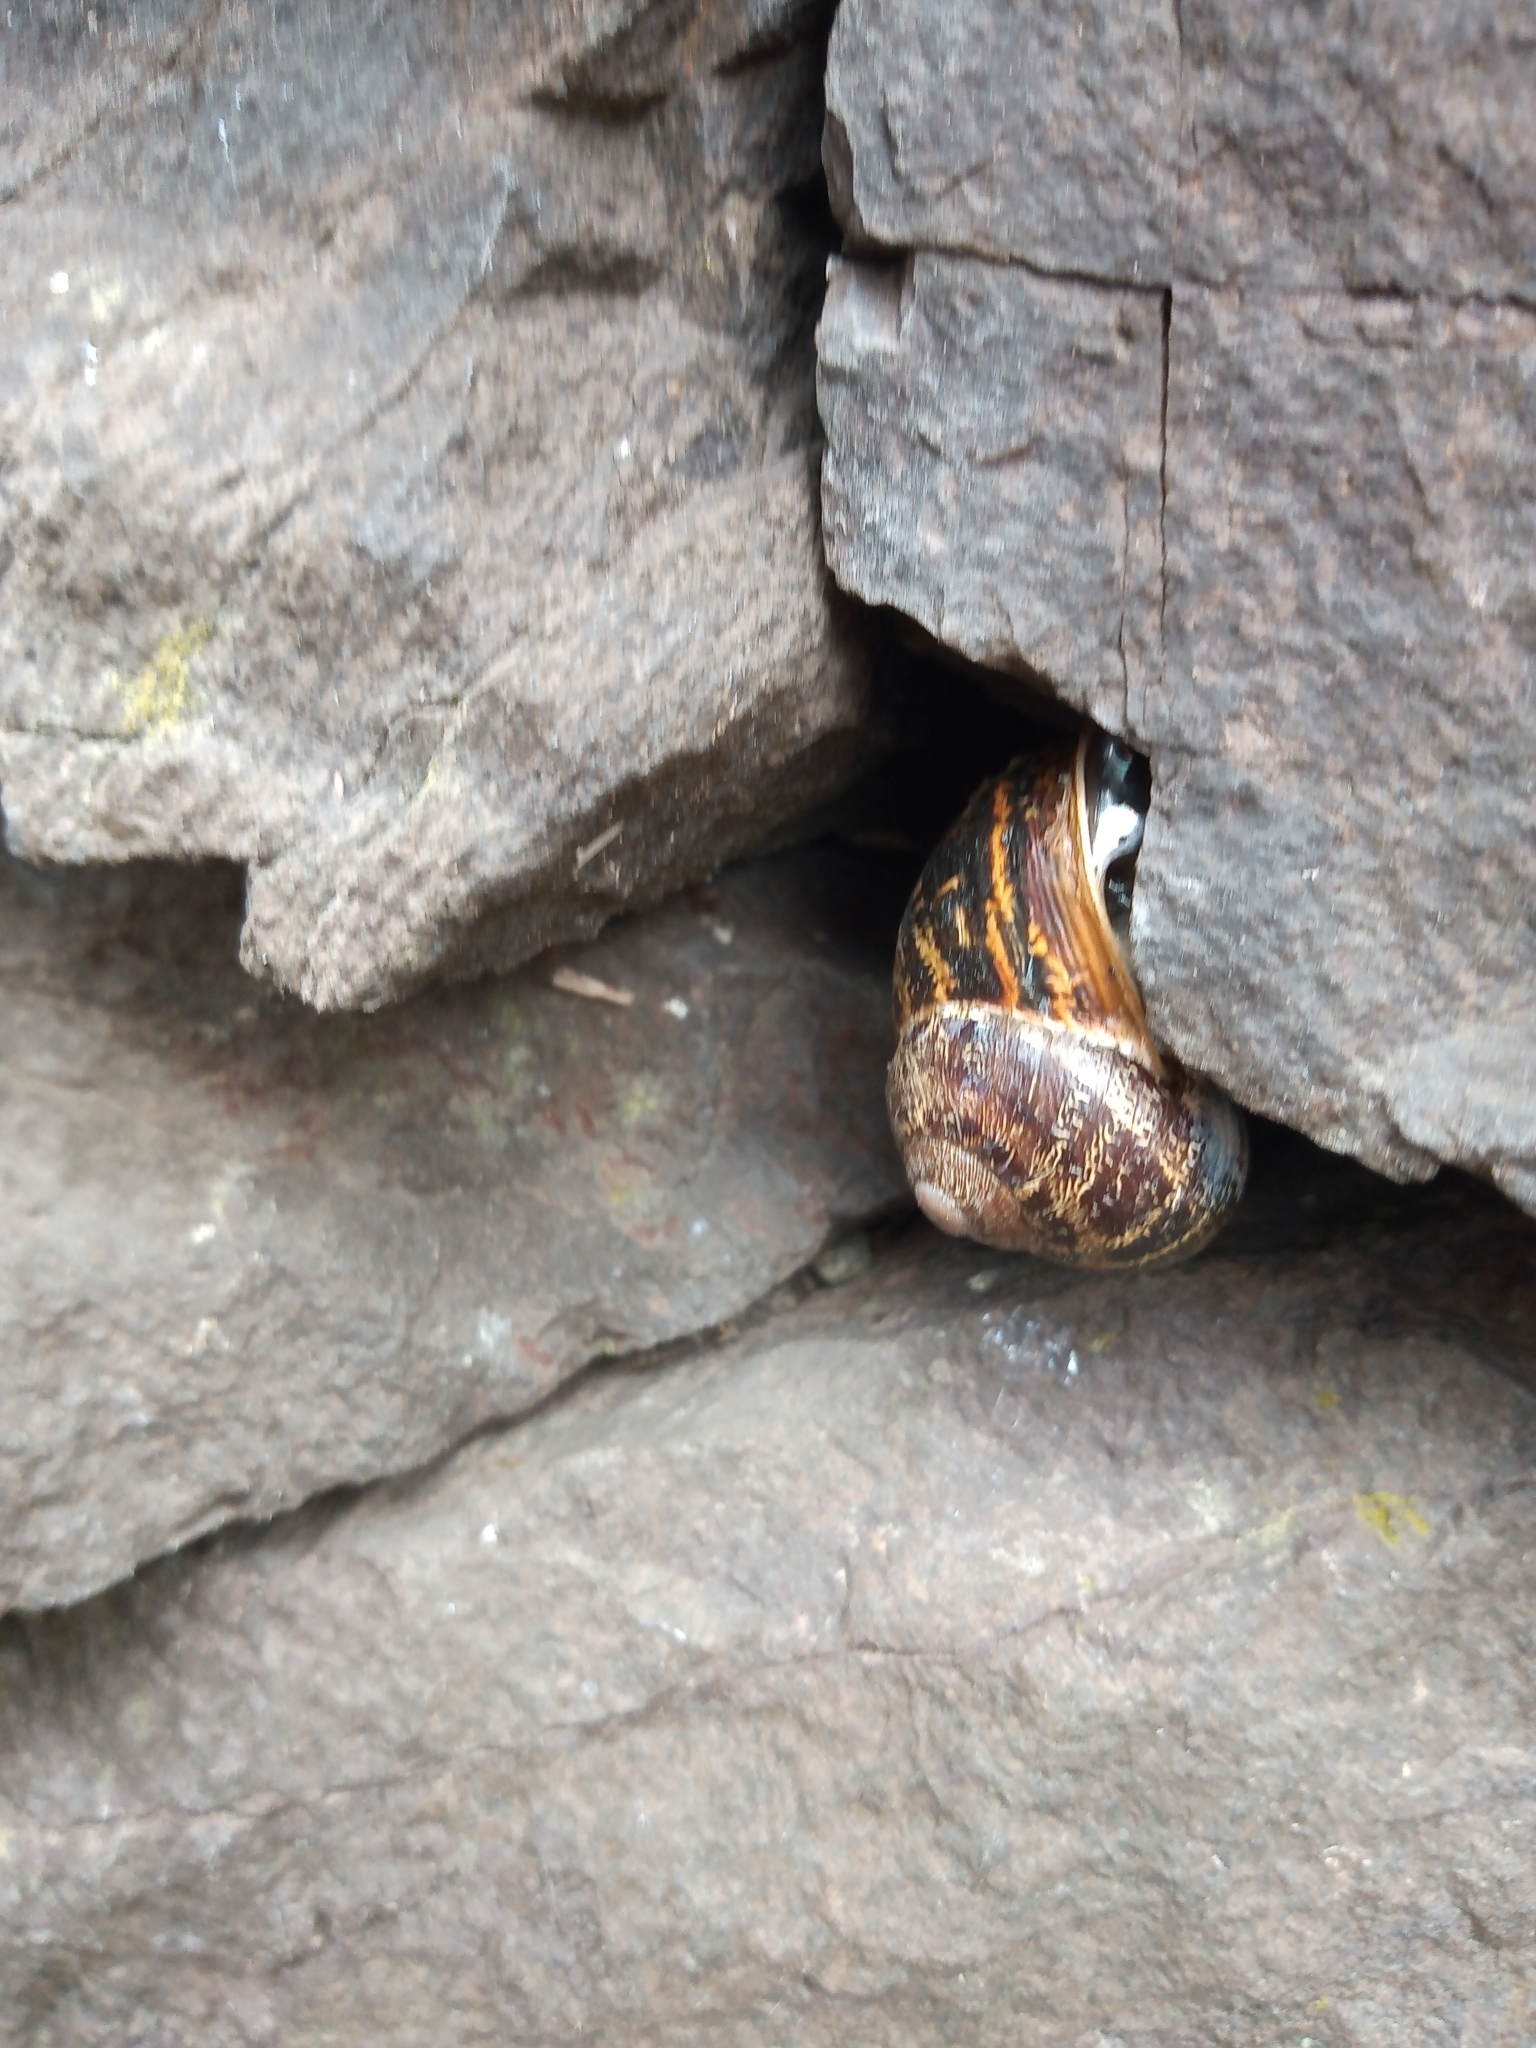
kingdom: Animalia
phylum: Mollusca
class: Gastropoda
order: Stylommatophora
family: Helicidae
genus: Cornu
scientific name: Cornu aspersum
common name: Brown garden snail
